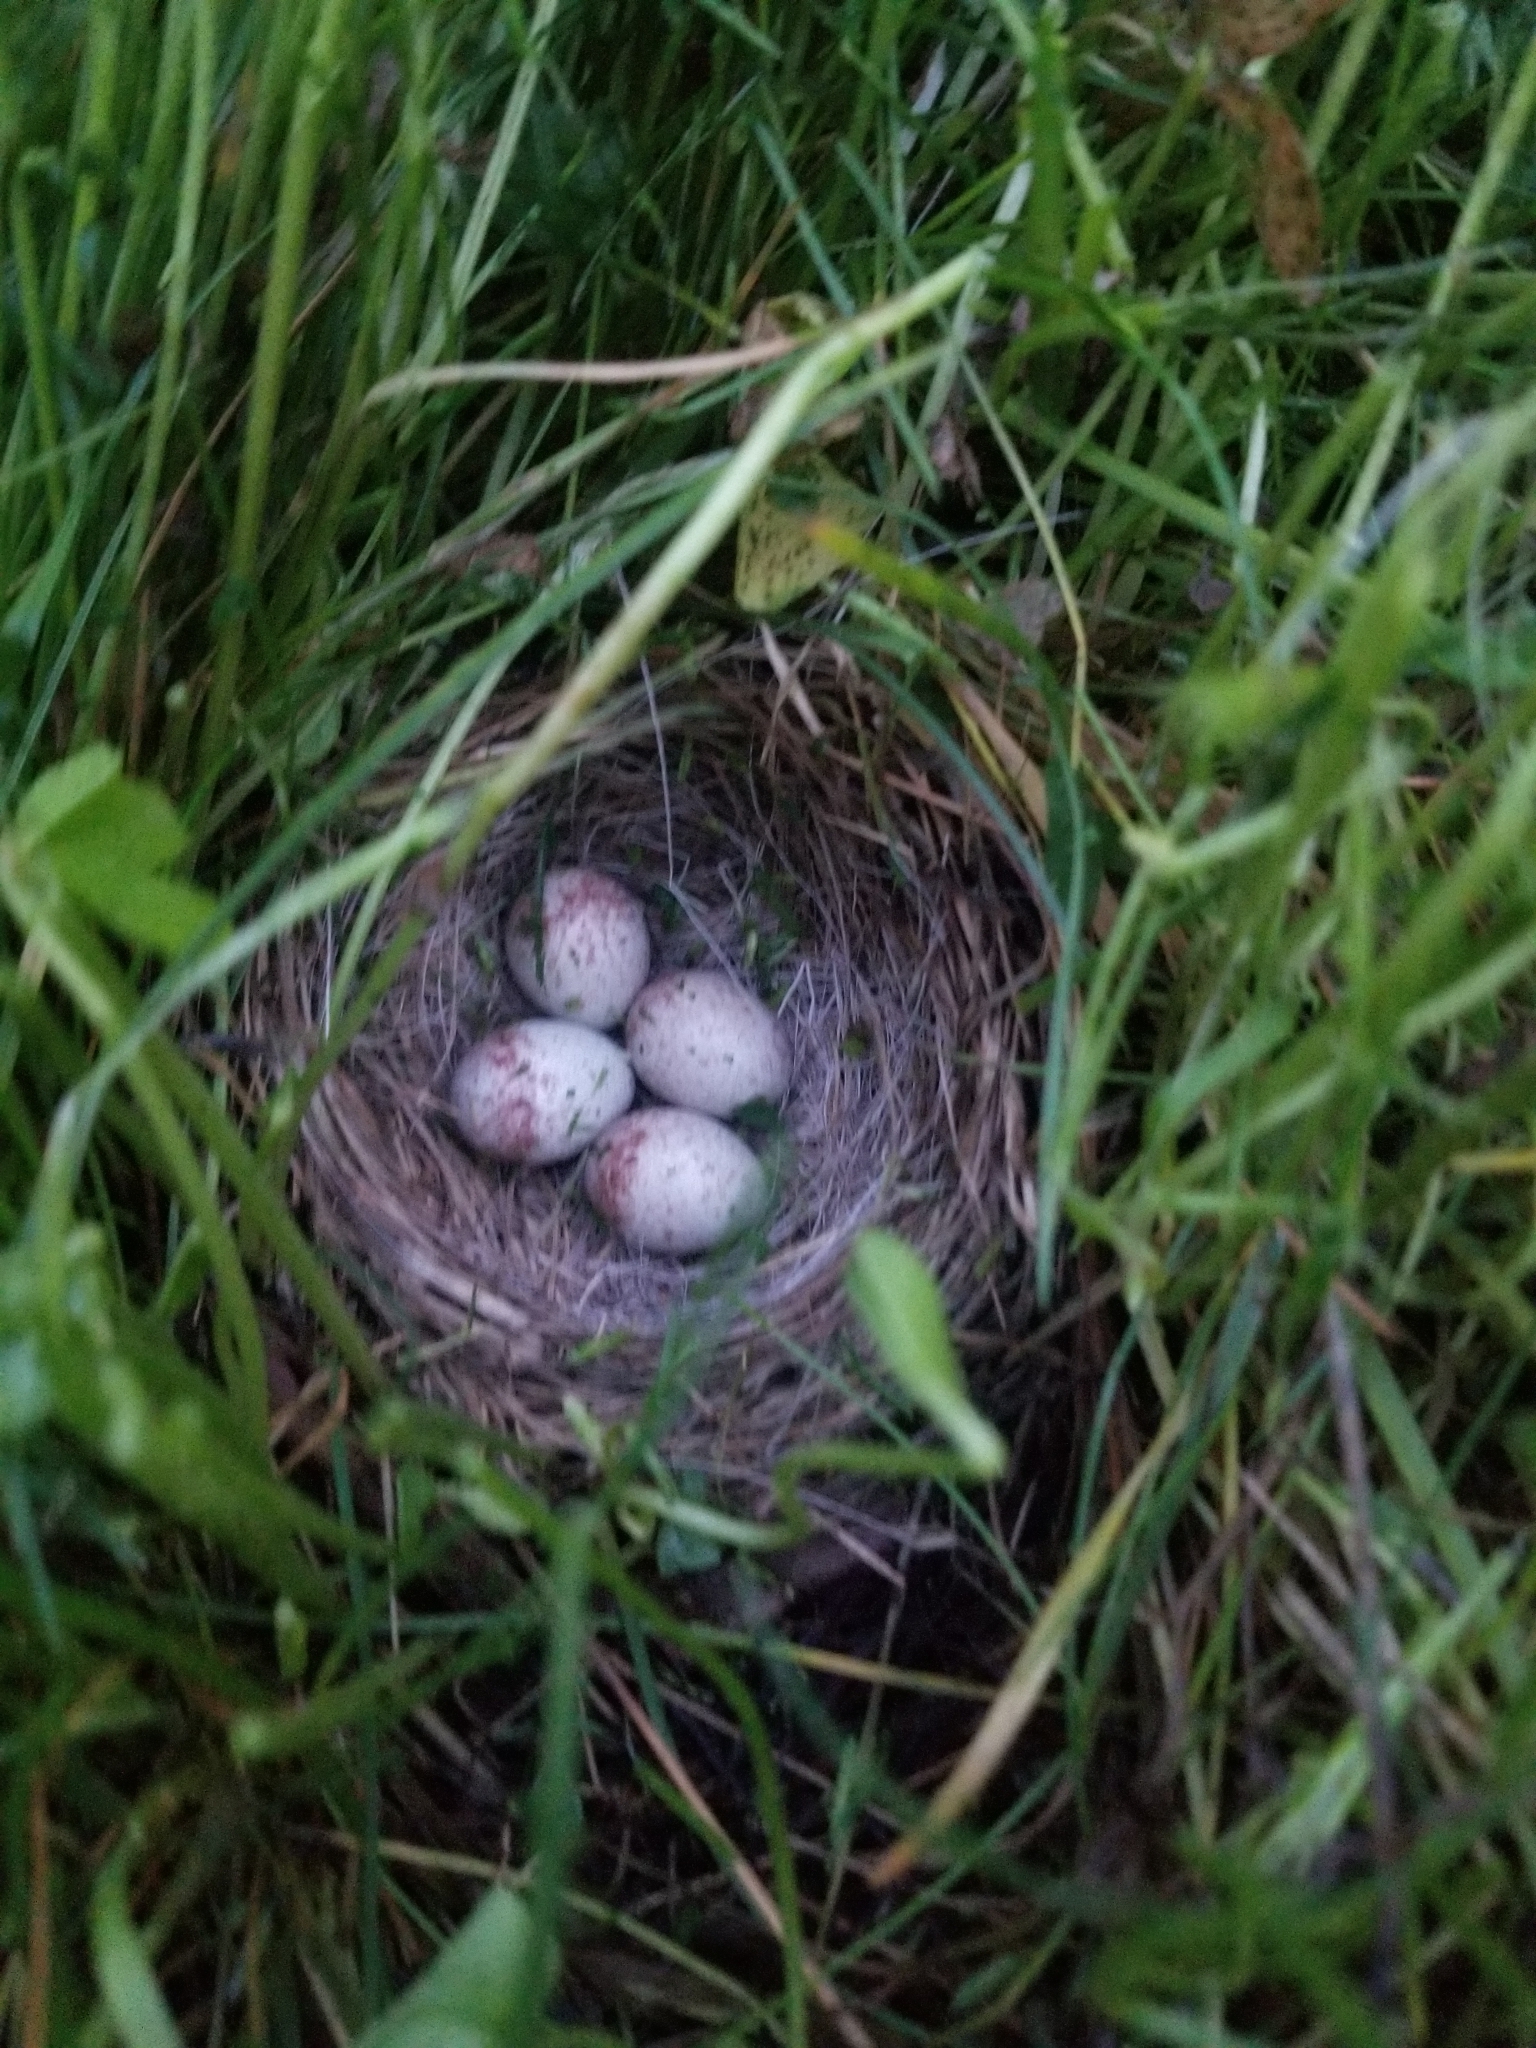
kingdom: Animalia
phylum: Chordata
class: Aves
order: Passeriformes
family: Passerellidae
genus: Junco
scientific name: Junco hyemalis
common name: Dark-eyed junco
